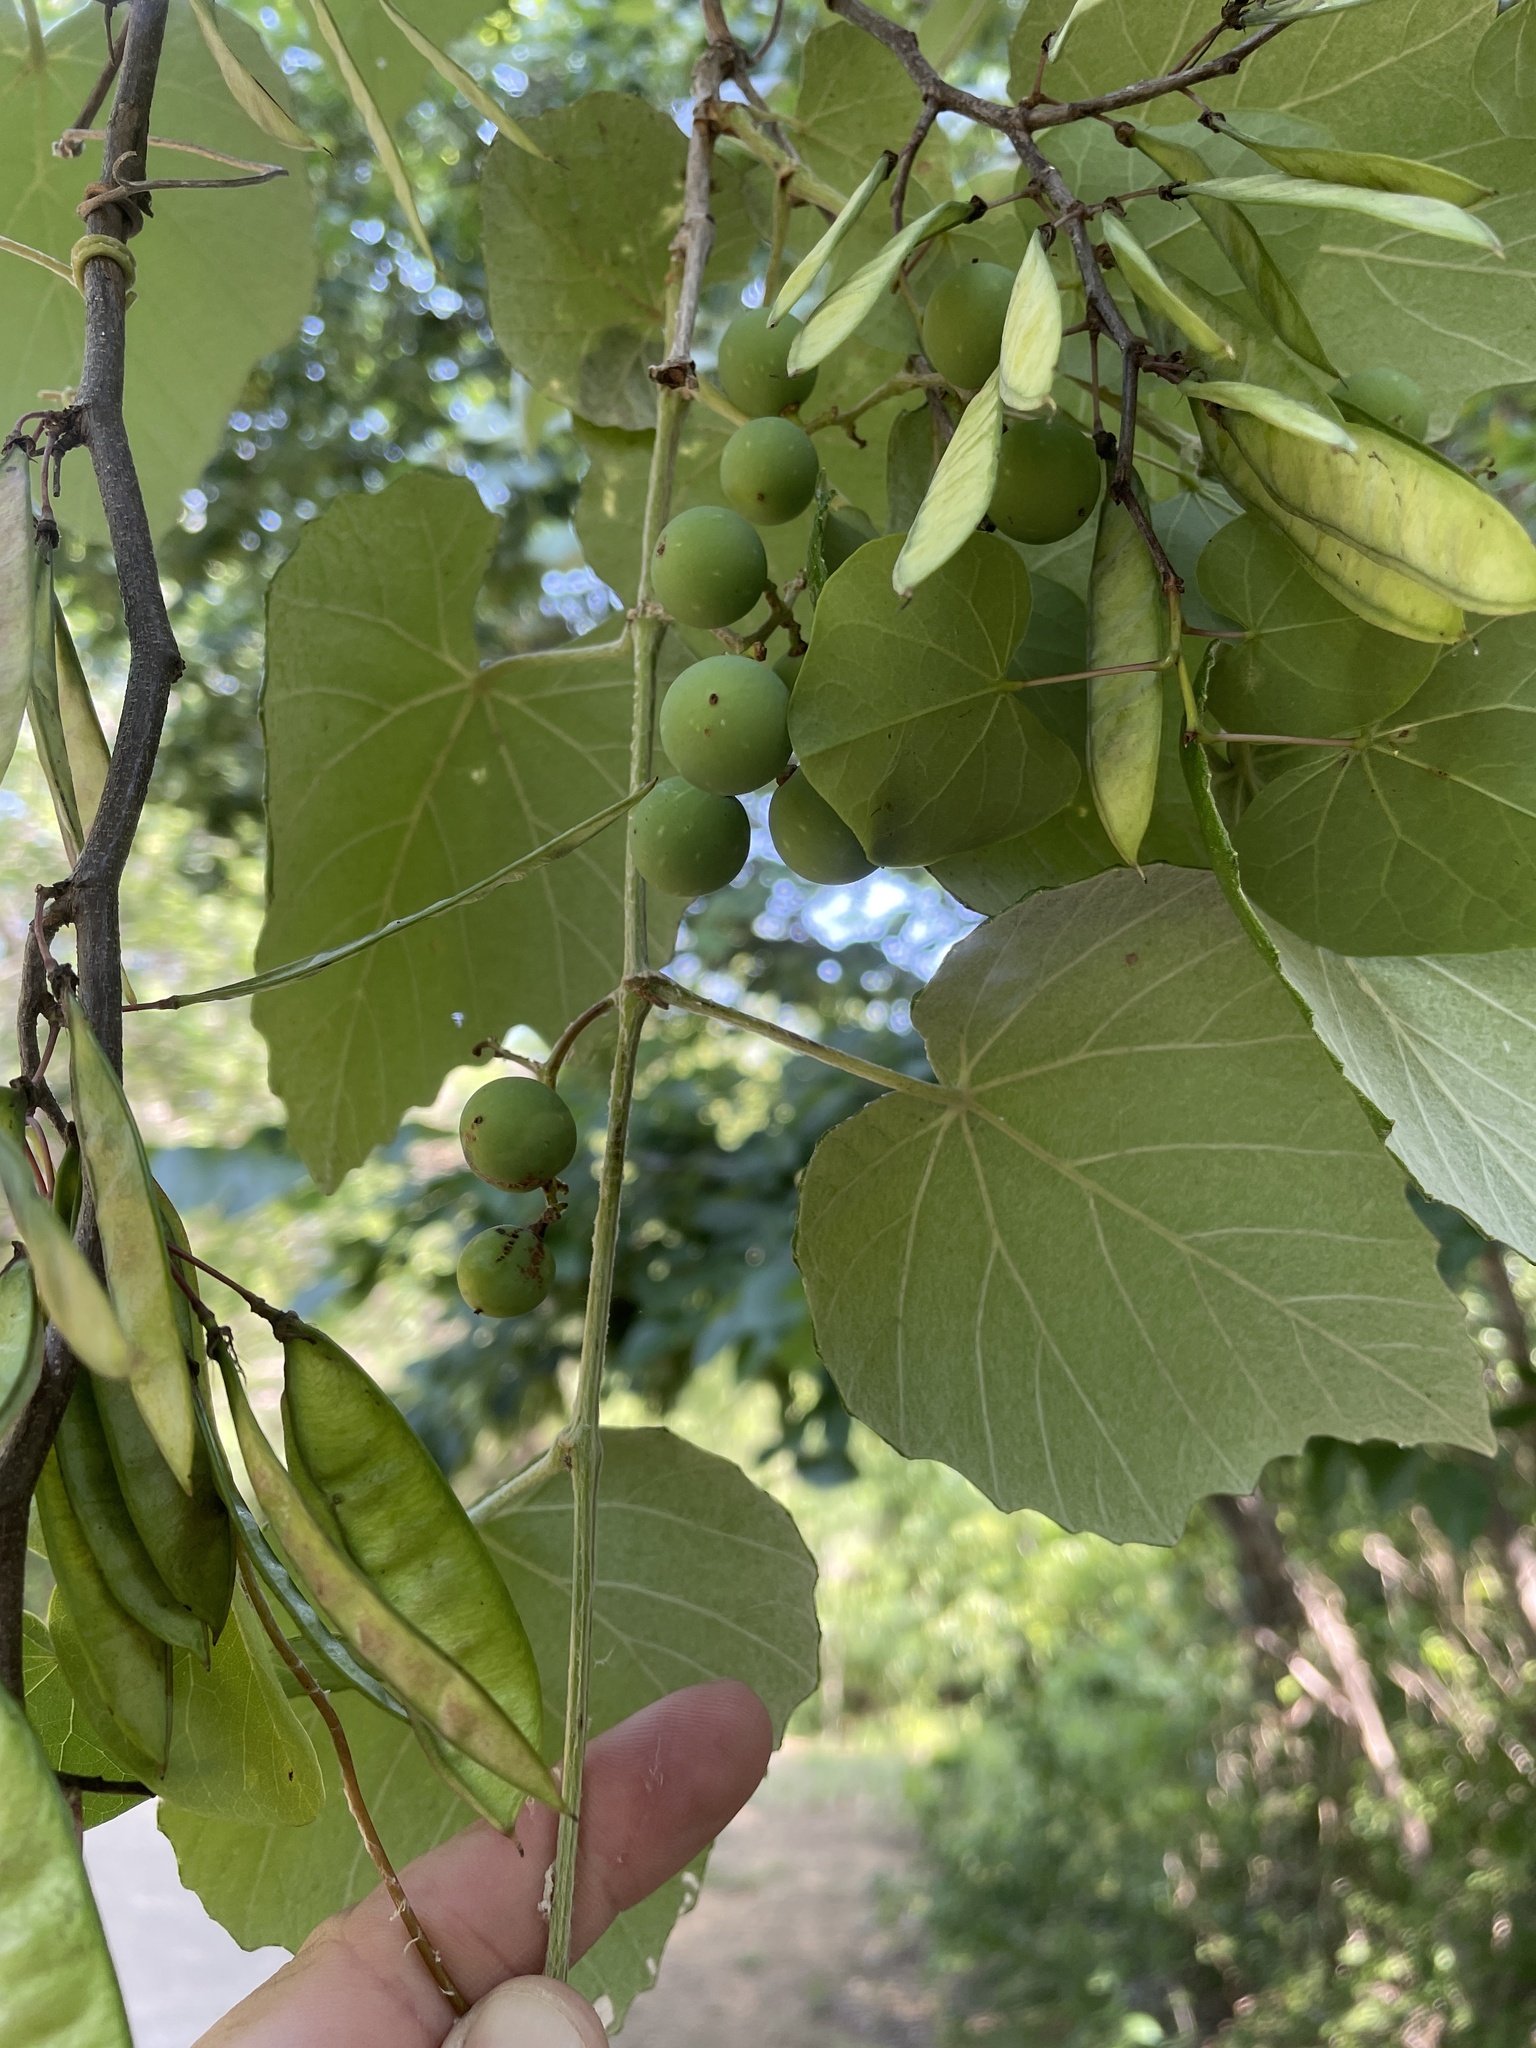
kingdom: Plantae
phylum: Tracheophyta
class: Magnoliopsida
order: Vitales
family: Vitaceae
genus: Vitis
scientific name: Vitis mustangensis
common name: Mustang grape
